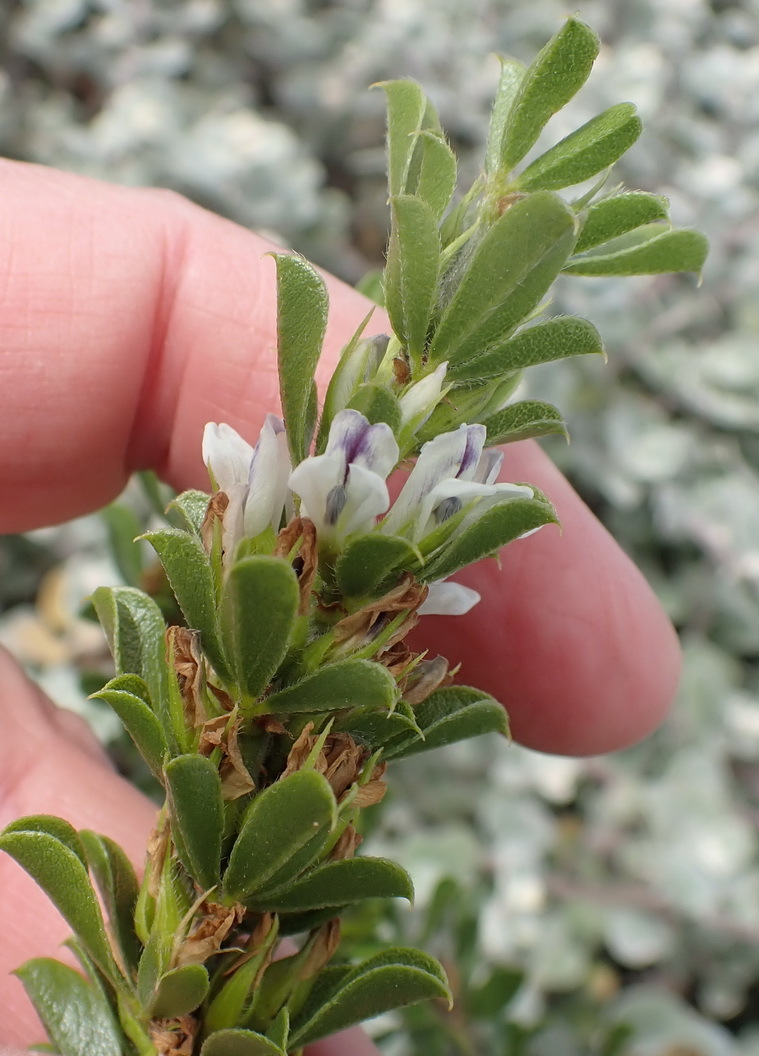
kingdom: Plantae
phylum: Tracheophyta
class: Magnoliopsida
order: Fabales
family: Fabaceae
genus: Psoralea
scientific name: Psoralea prodiens
